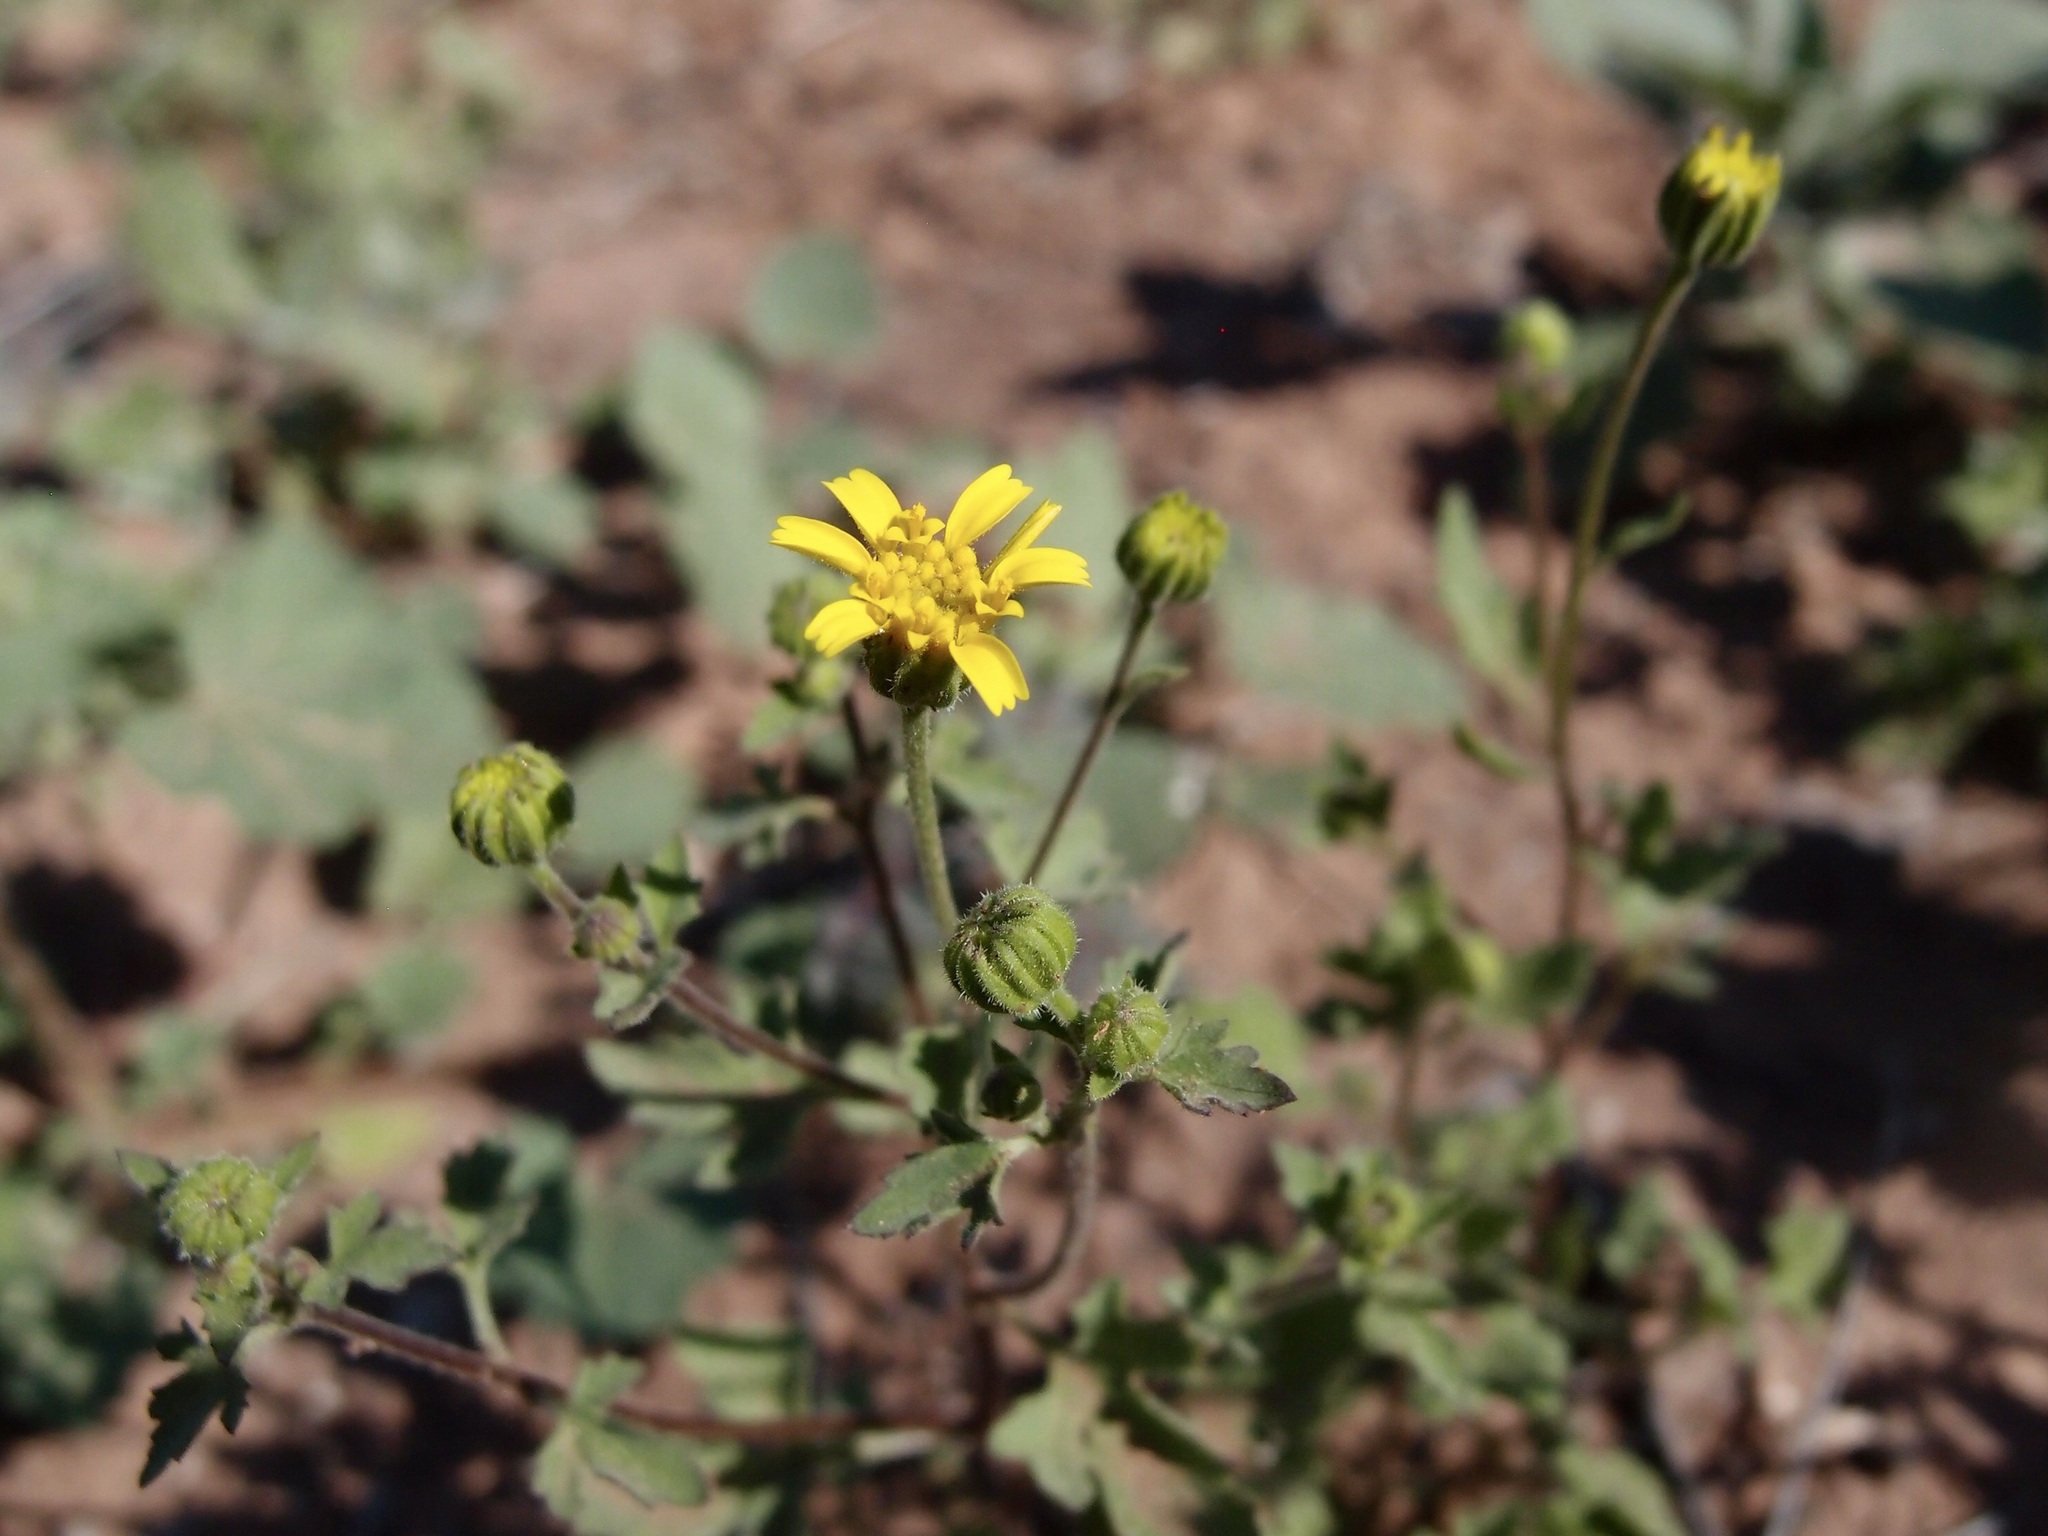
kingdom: Plantae
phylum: Tracheophyta
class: Magnoliopsida
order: Asterales
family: Asteraceae
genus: Perityle
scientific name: Perityle californica
